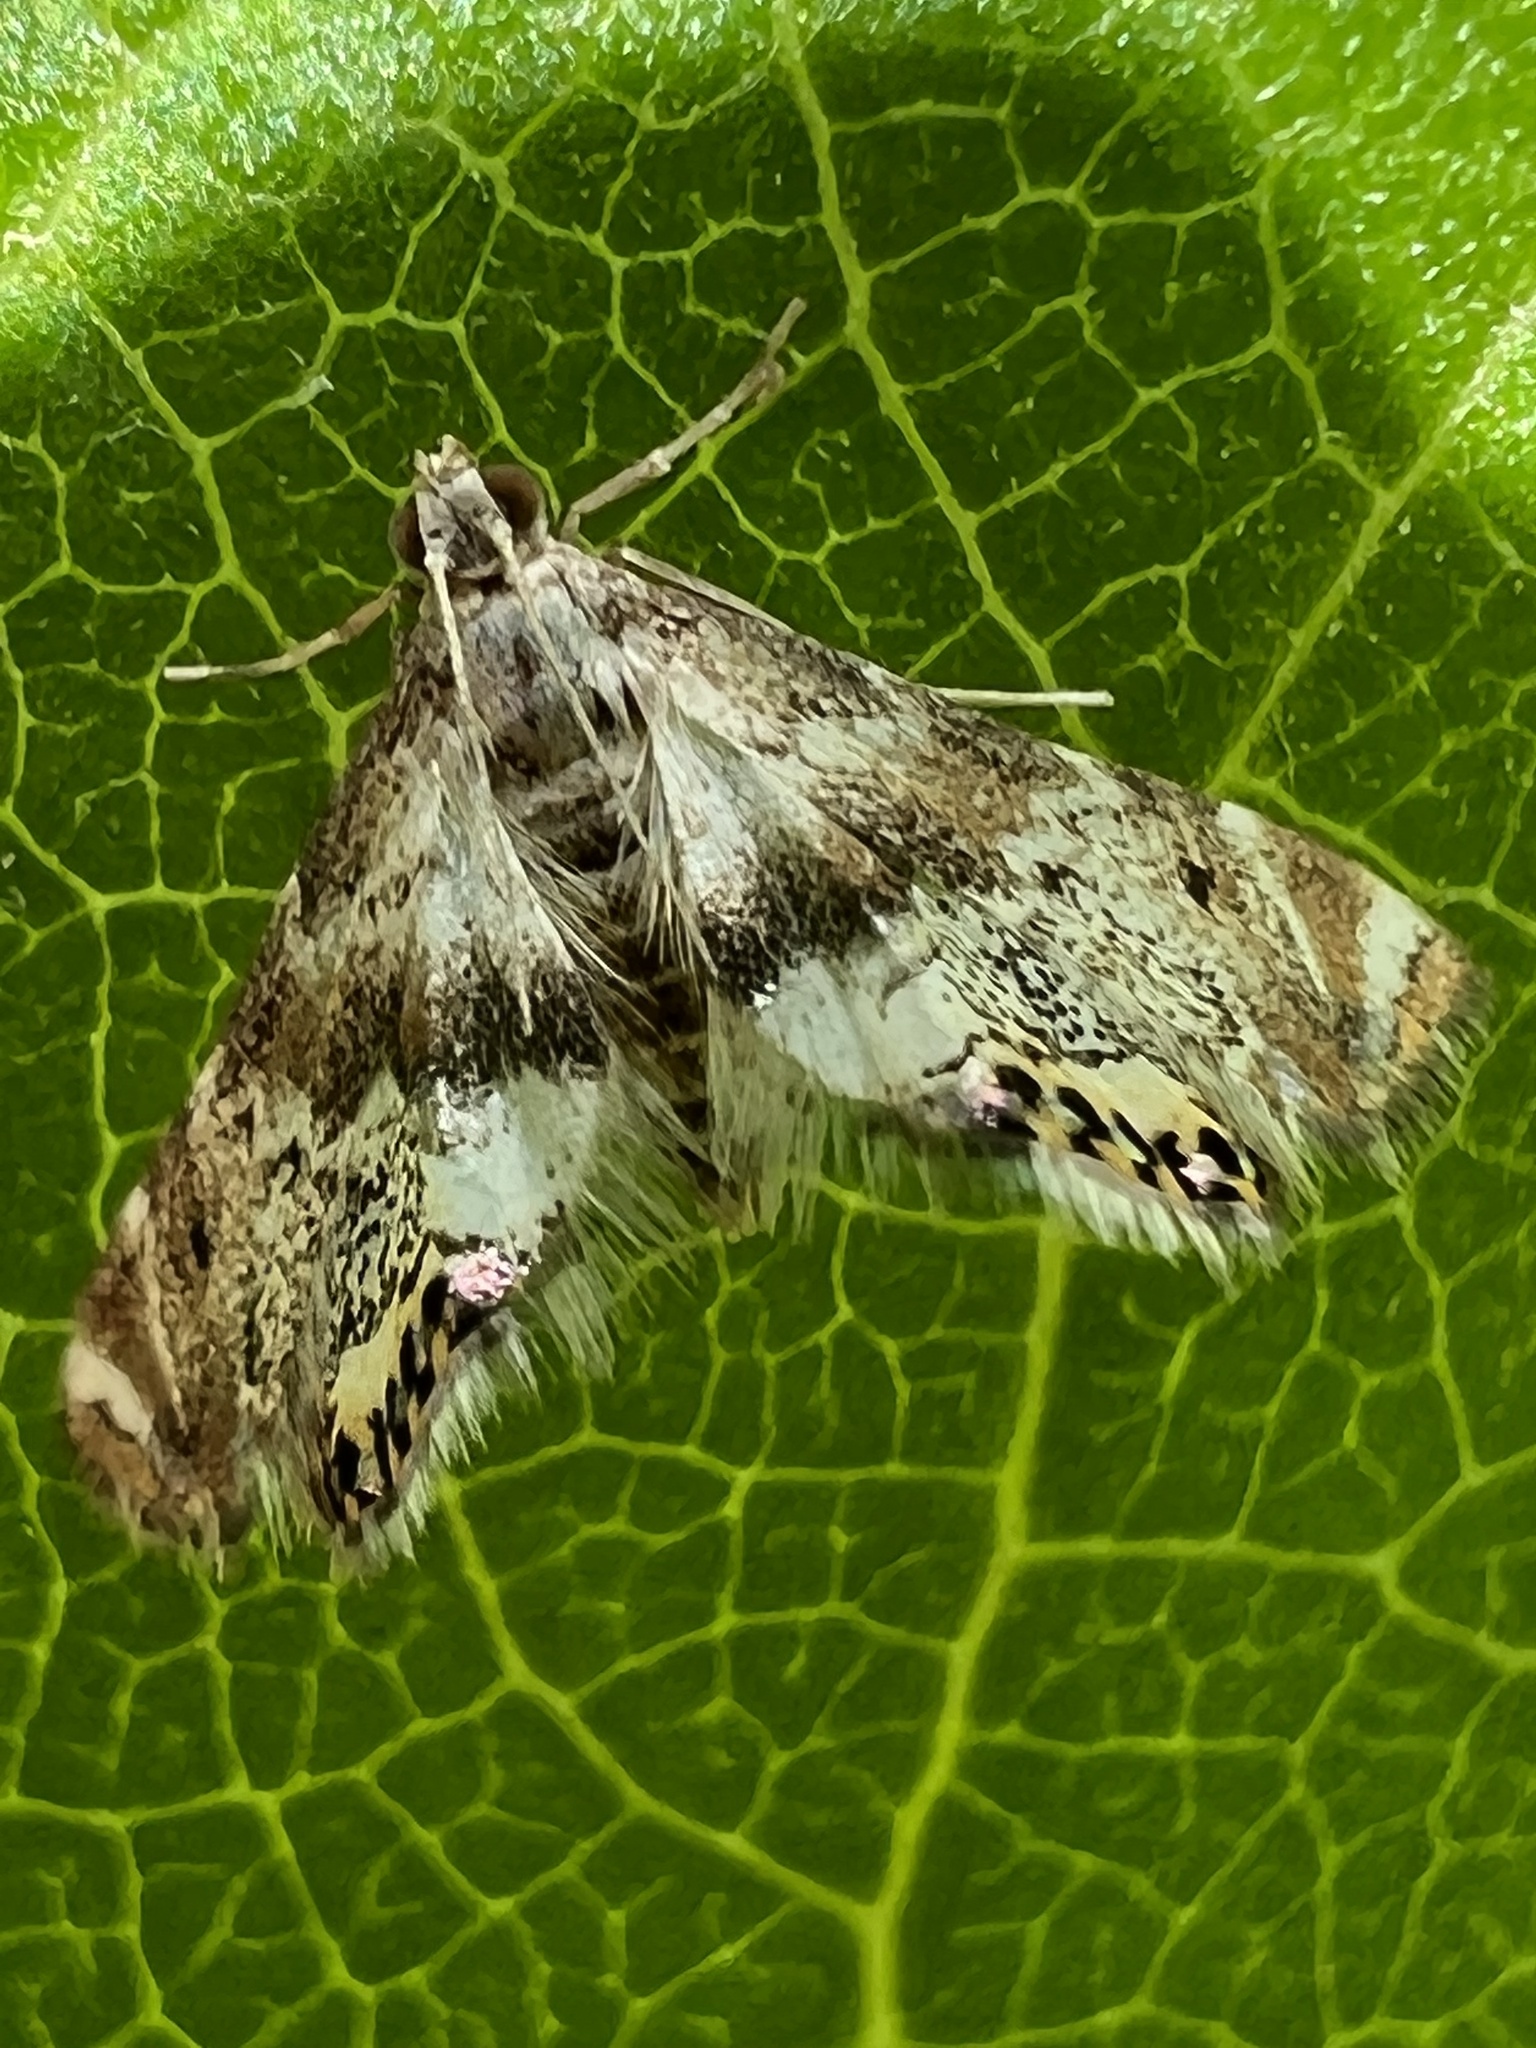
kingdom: Animalia
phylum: Arthropoda
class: Insecta
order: Lepidoptera
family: Crambidae
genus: Petrophila
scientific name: Petrophila fulicalis
